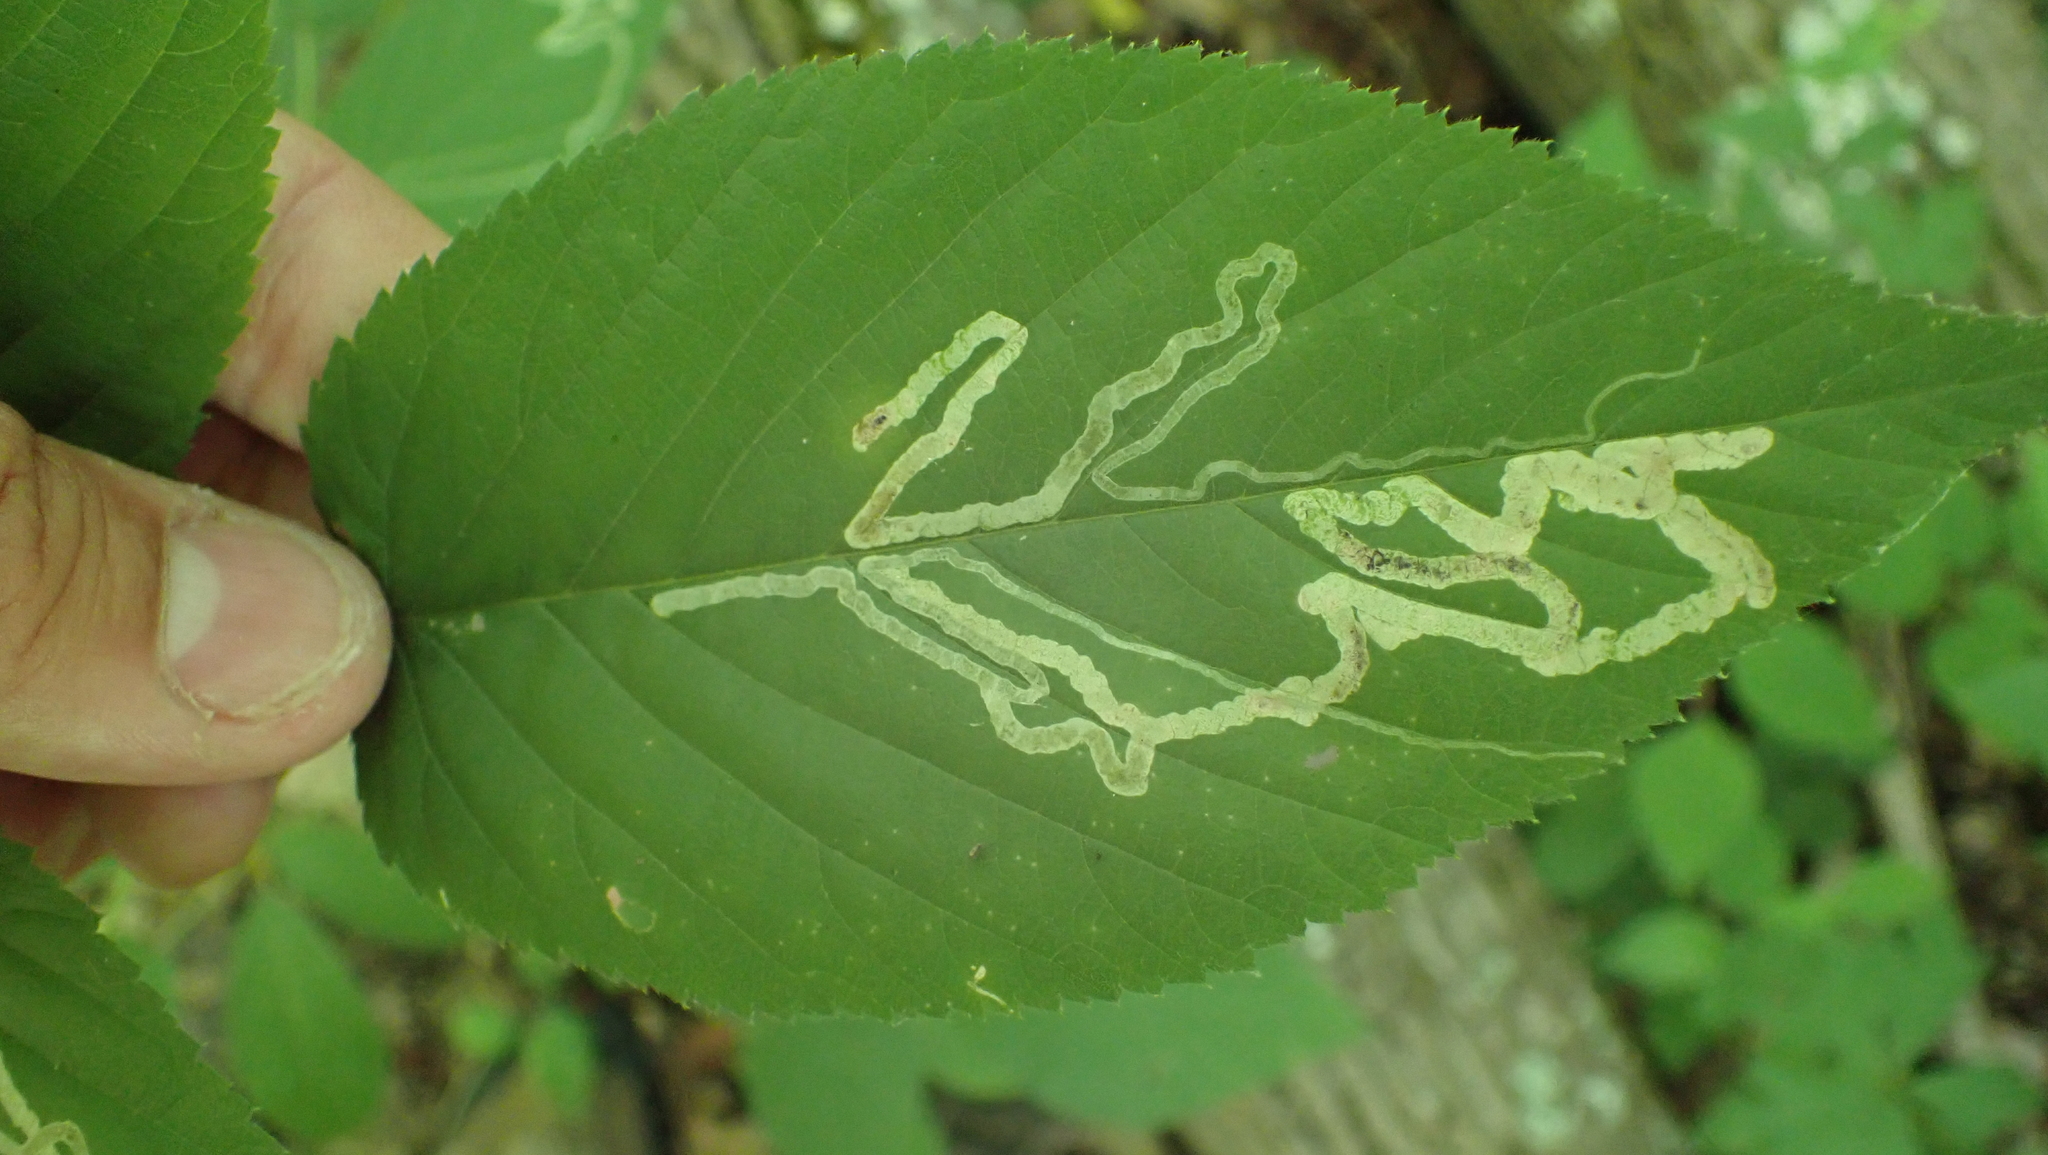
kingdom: Animalia
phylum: Arthropoda
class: Insecta
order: Diptera
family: Agromyzidae
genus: Agromyza
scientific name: Agromyza vockerothi
